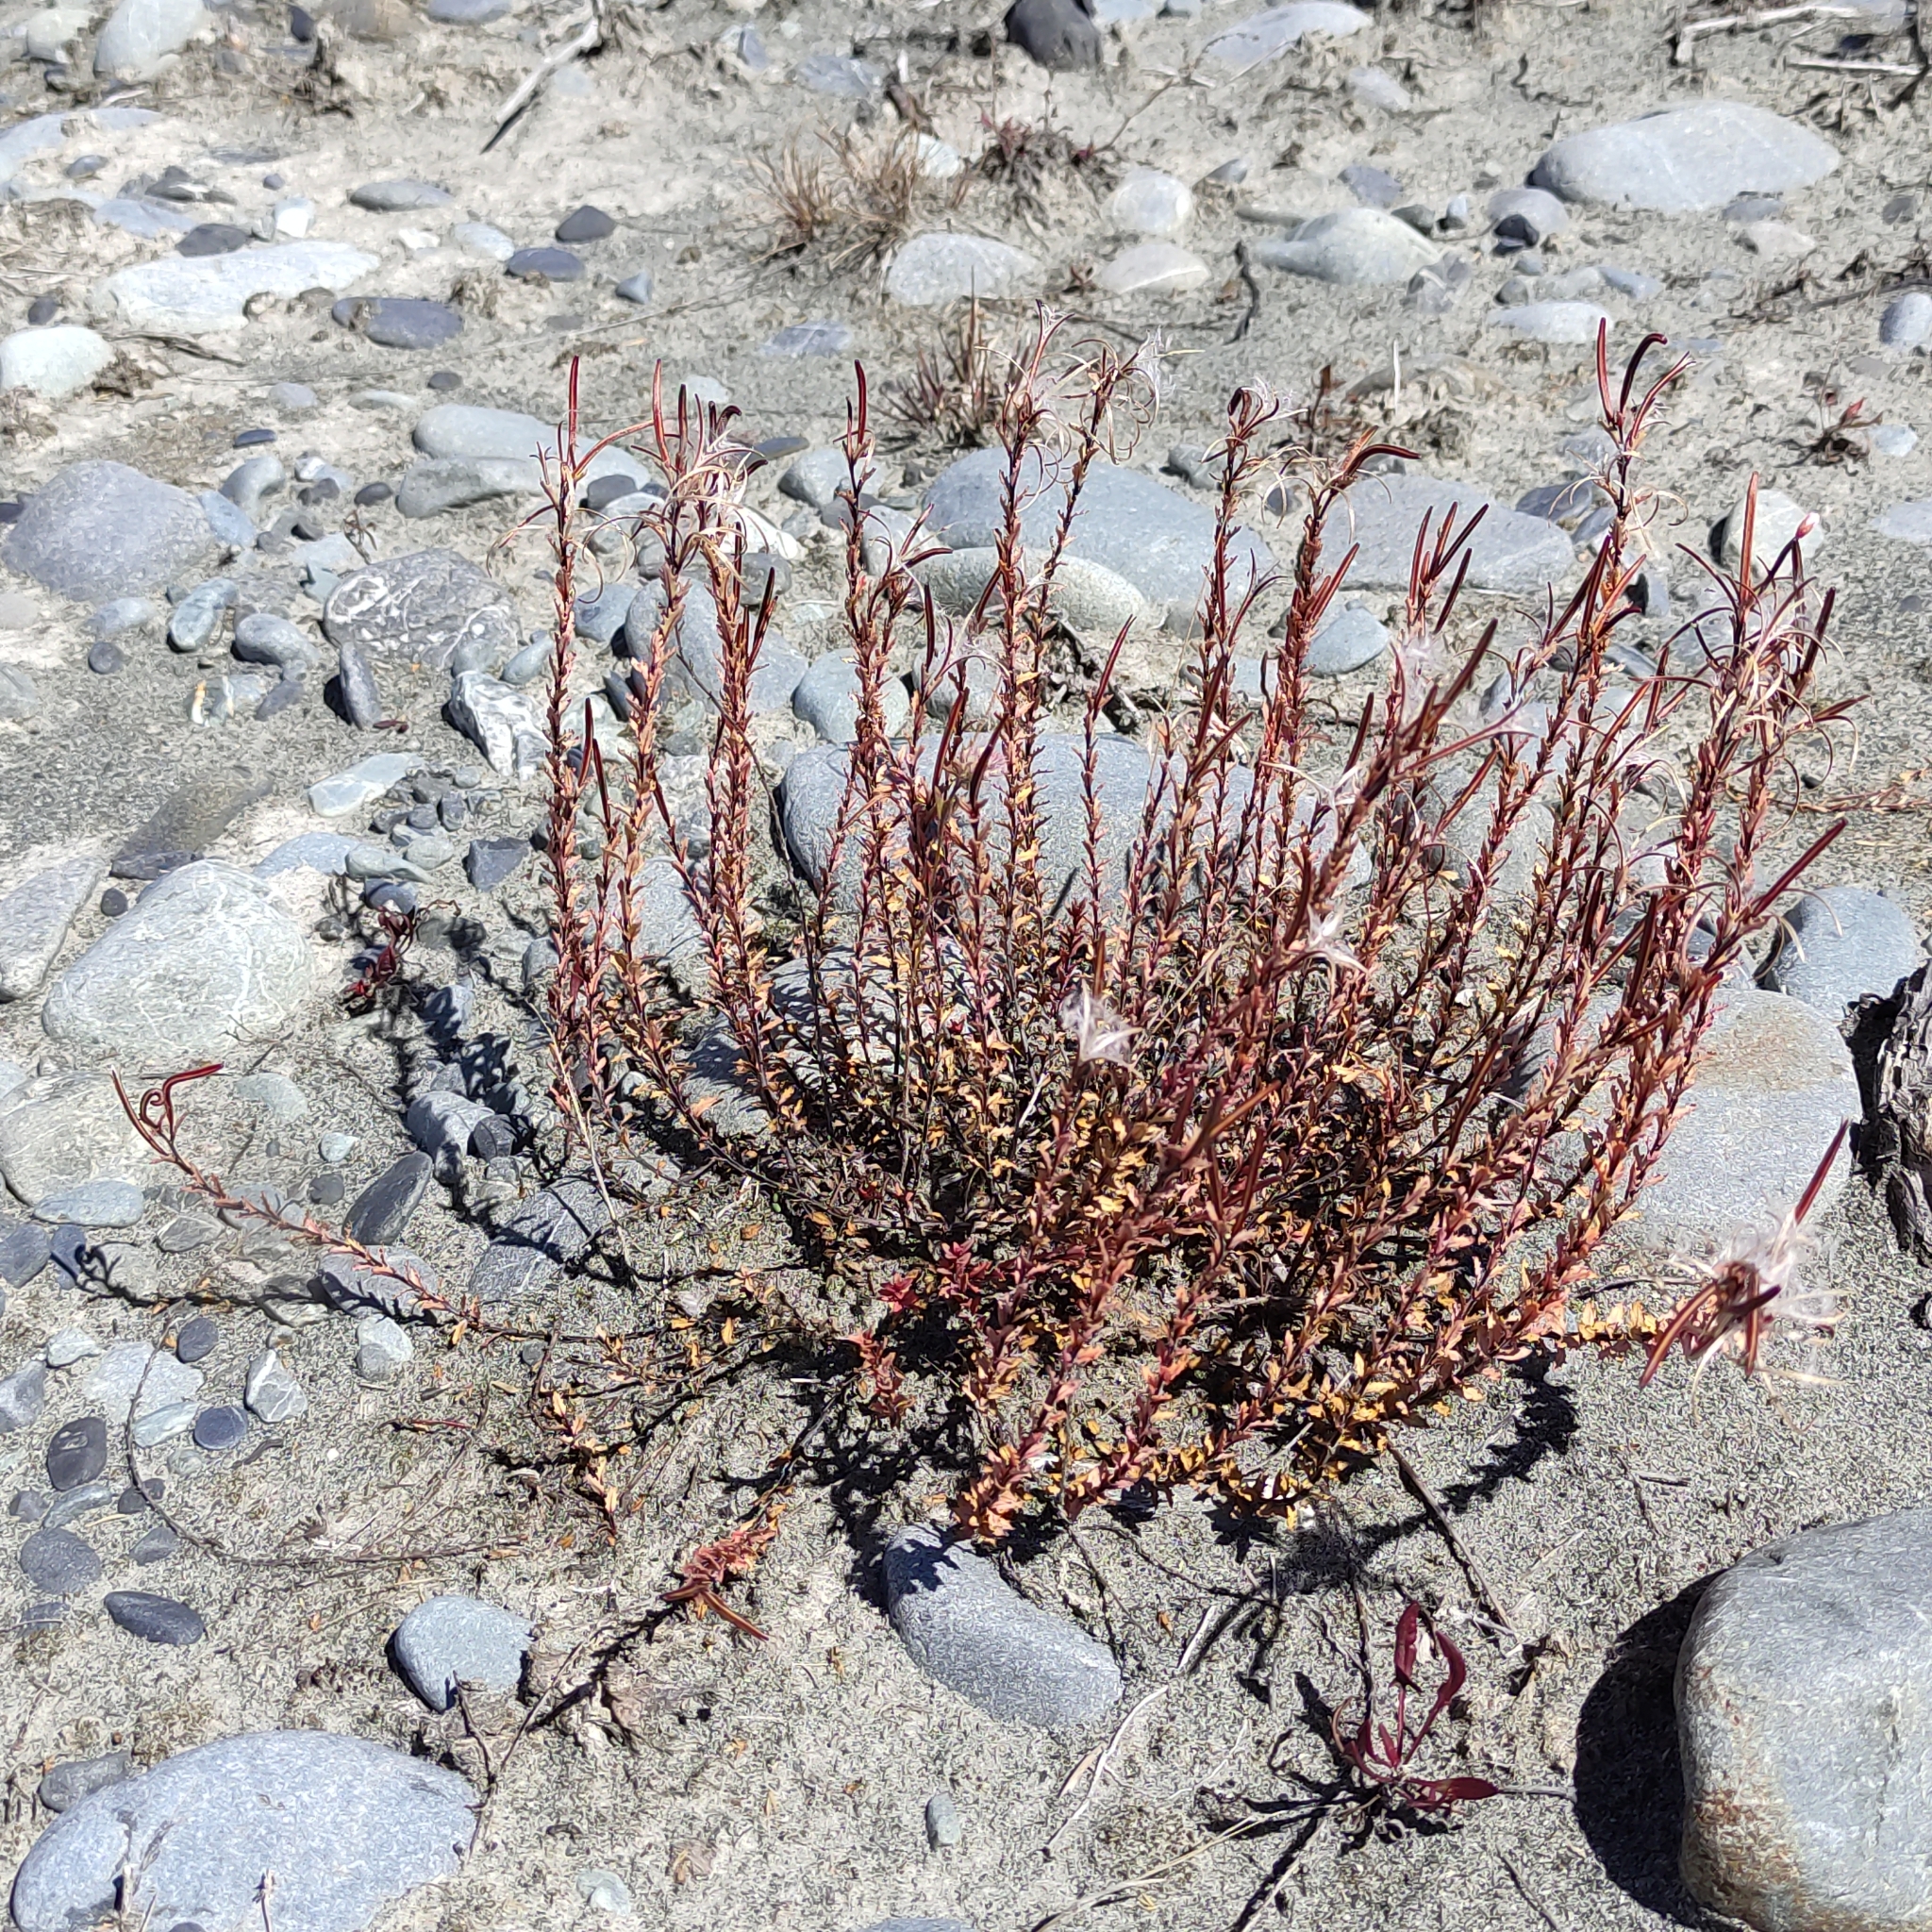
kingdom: Plantae
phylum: Tracheophyta
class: Magnoliopsida
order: Myrtales
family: Onagraceae
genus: Epilobium
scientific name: Epilobium melanocaulon
